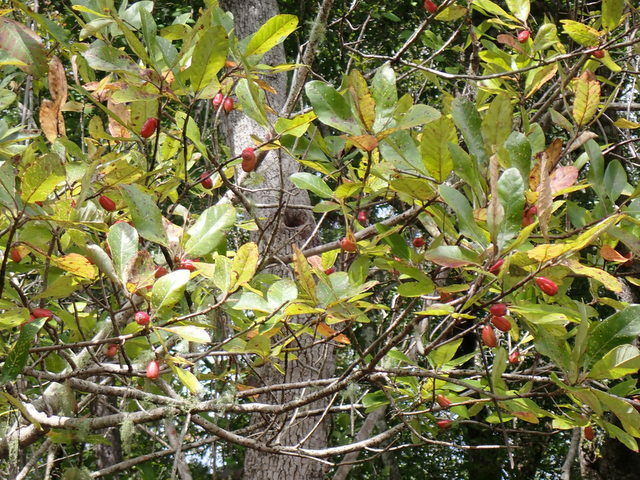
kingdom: Plantae
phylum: Tracheophyta
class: Magnoliopsida
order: Cornales
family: Nyssaceae
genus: Nyssa
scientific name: Nyssa ogeche
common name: Ogeechee tupelo
